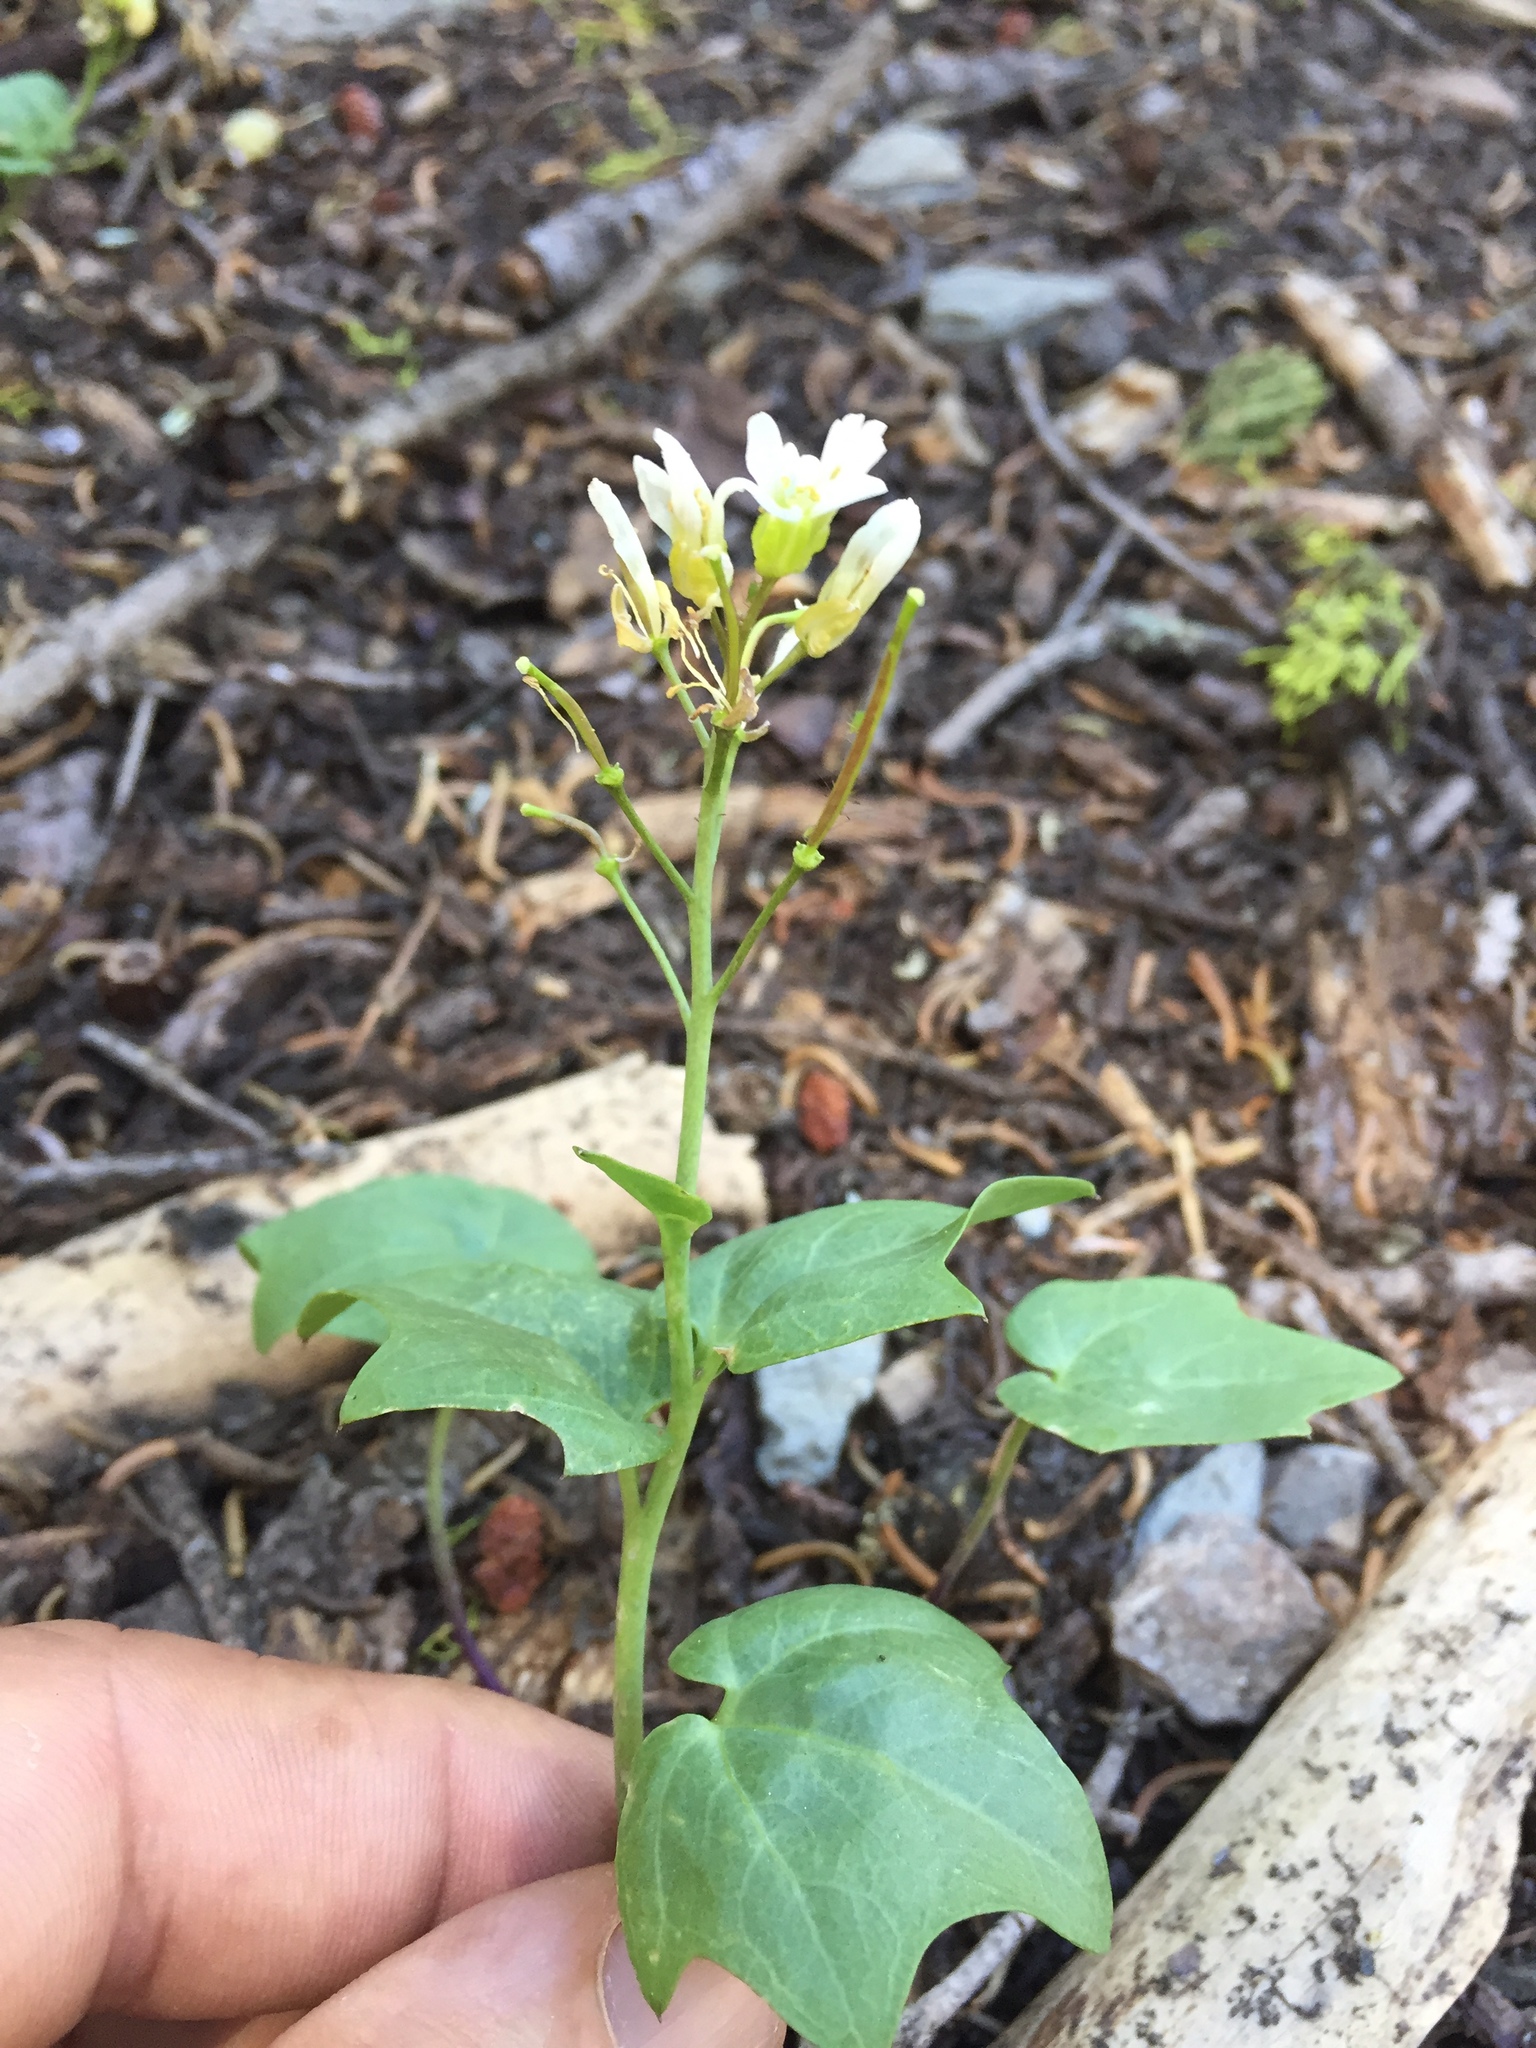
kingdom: Plantae
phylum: Tracheophyta
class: Magnoliopsida
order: Brassicales
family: Brassicaceae
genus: Cardamine
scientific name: Cardamine californica
